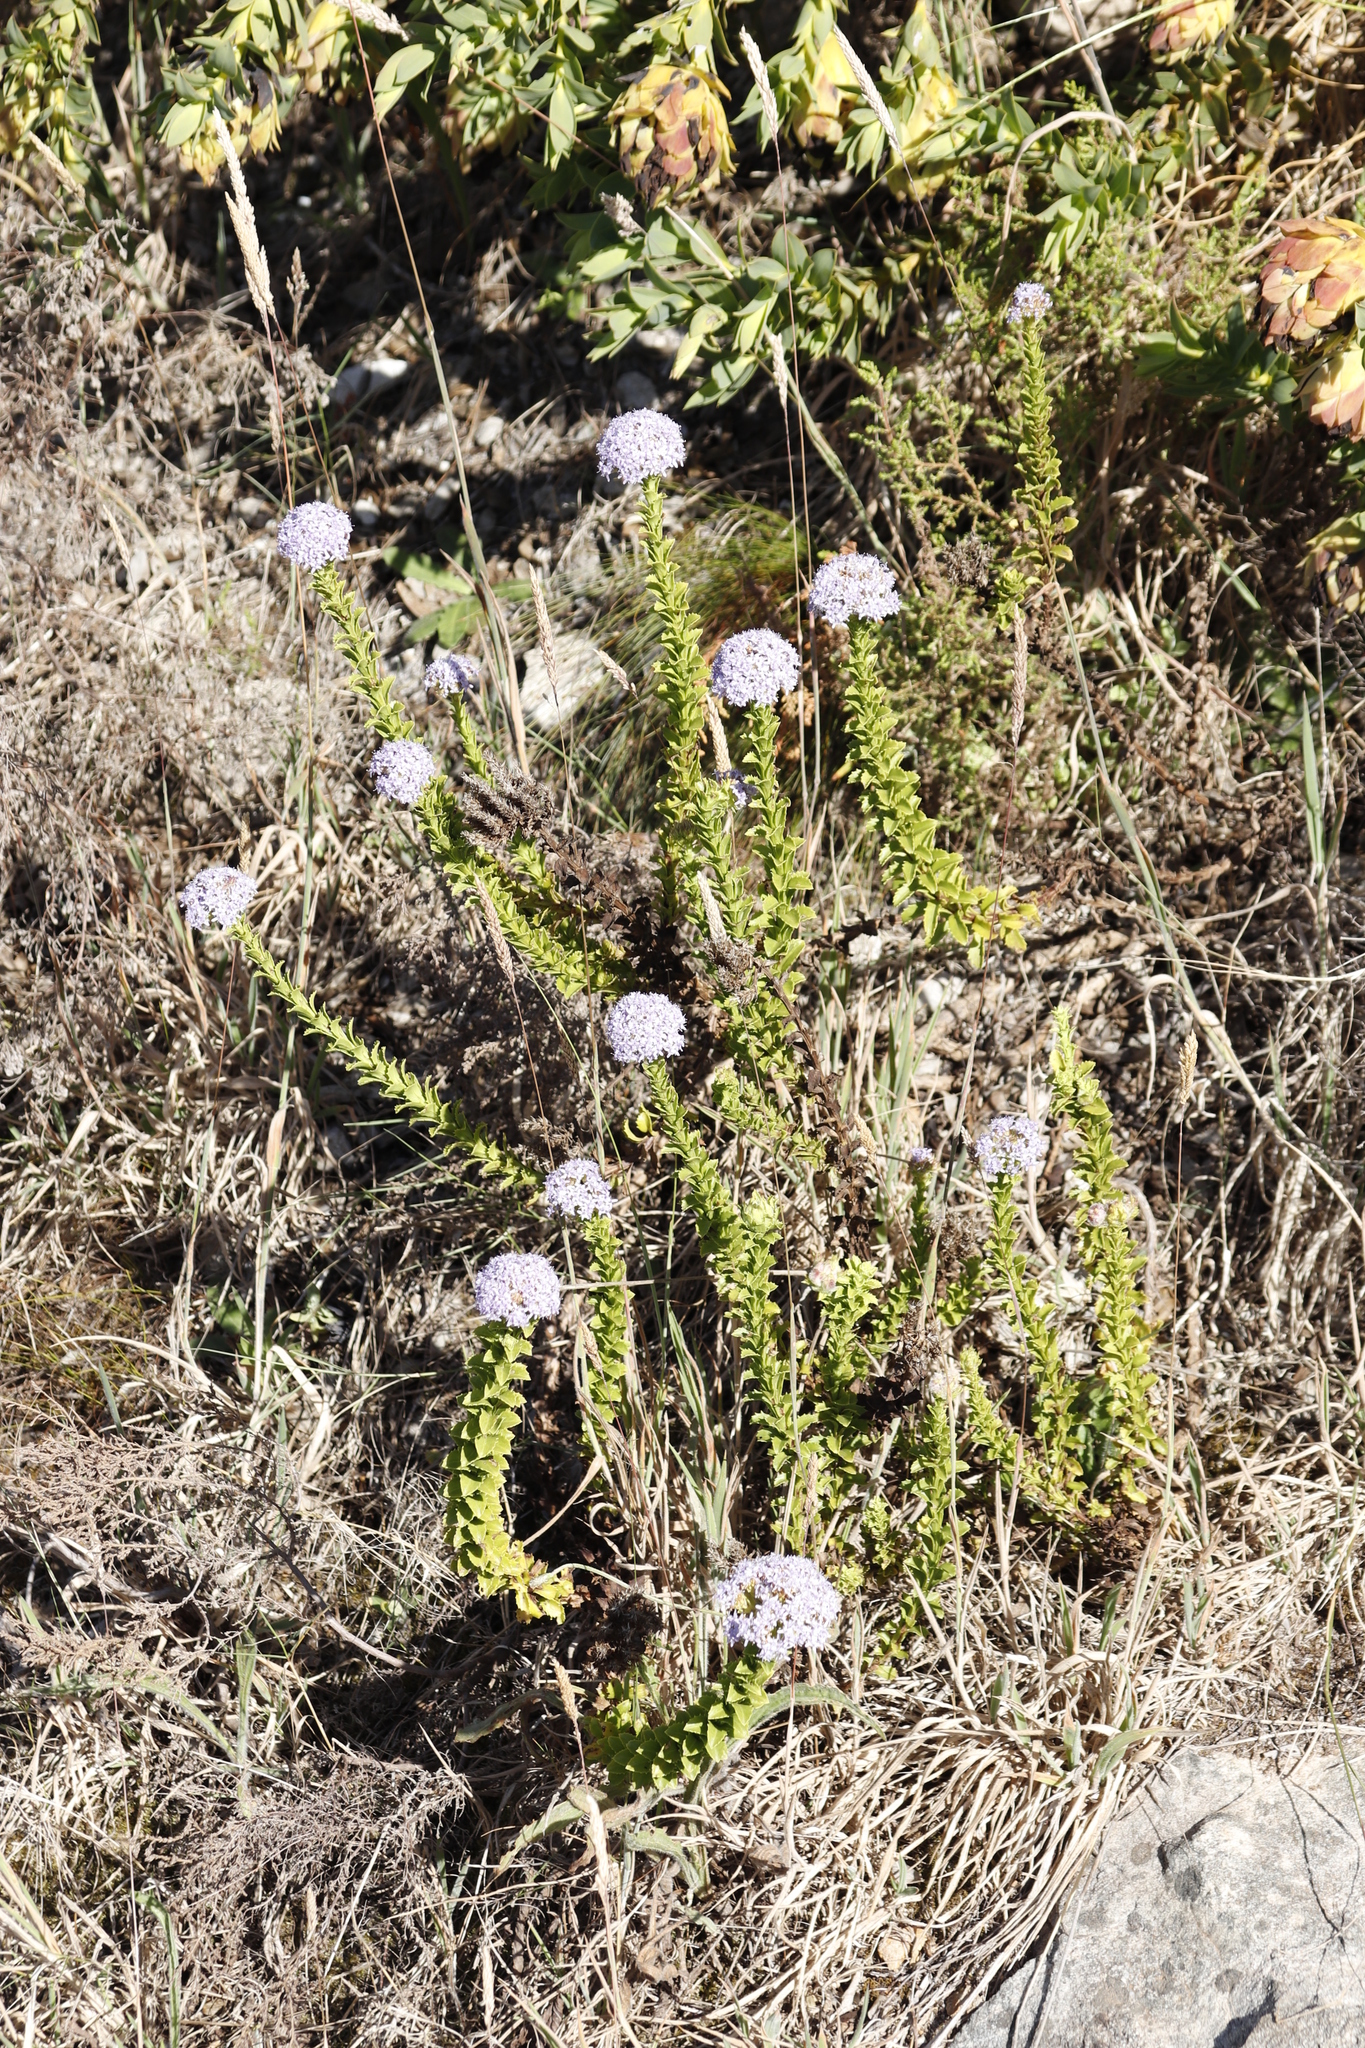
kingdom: Plantae
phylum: Tracheophyta
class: Magnoliopsida
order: Lamiales
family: Scrophulariaceae
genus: Pseudoselago
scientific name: Pseudoselago serrata
